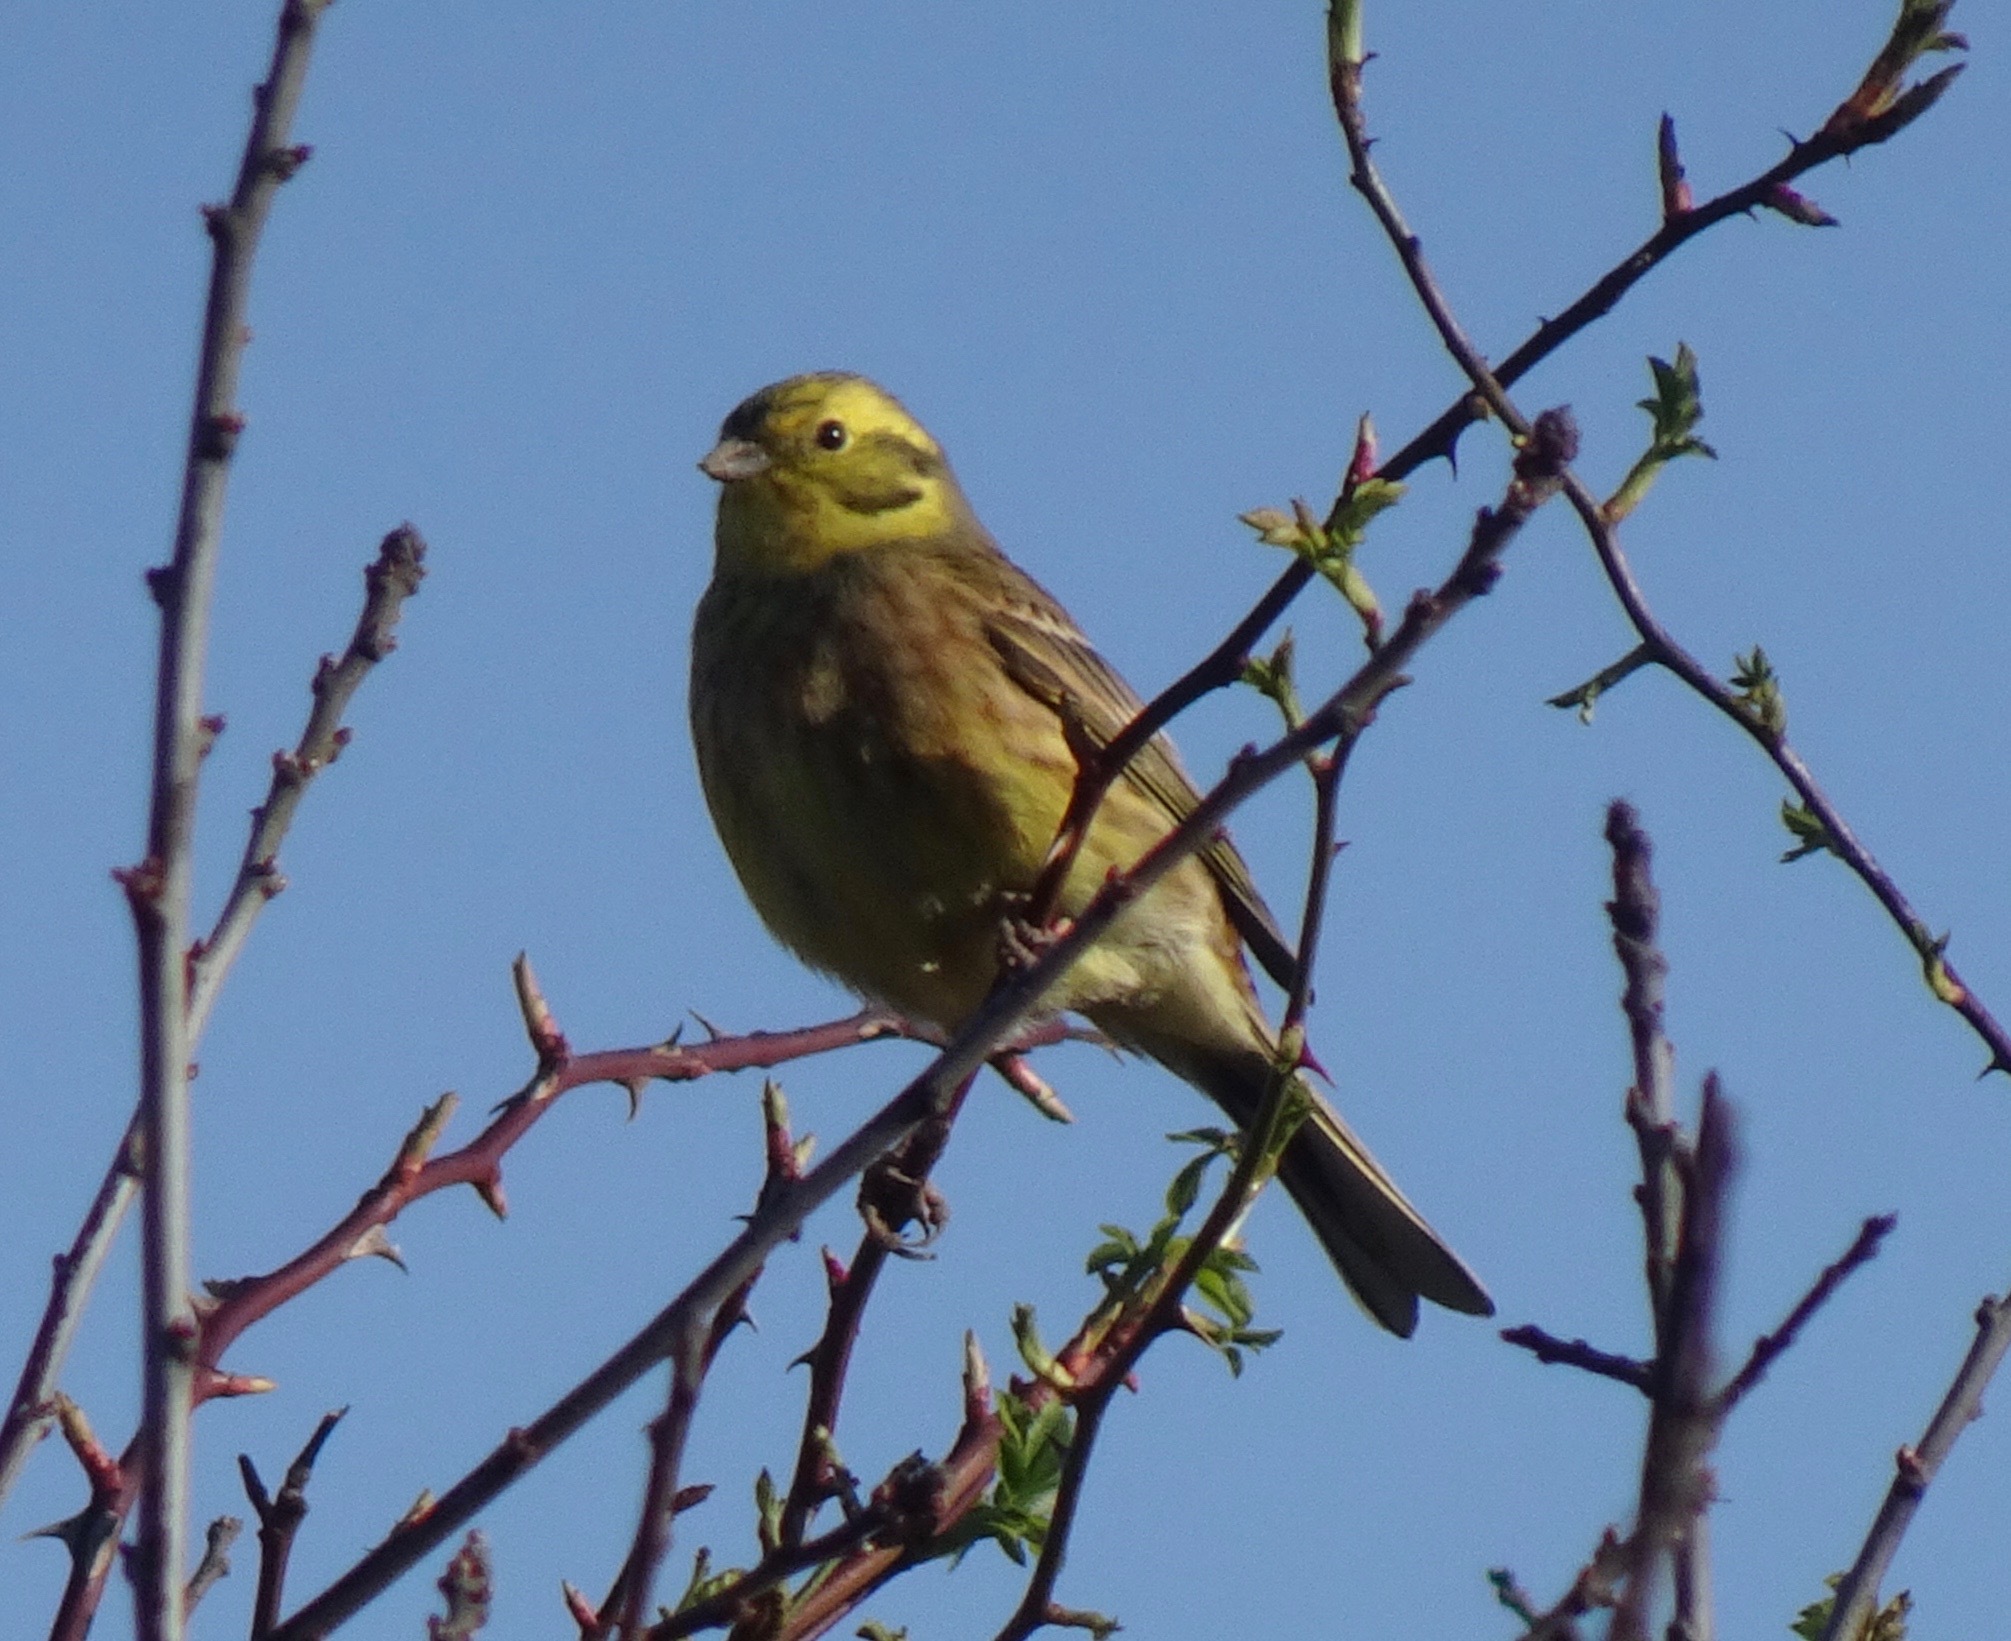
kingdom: Animalia
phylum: Chordata
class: Aves
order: Passeriformes
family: Emberizidae
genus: Emberiza
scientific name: Emberiza citrinella
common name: Yellowhammer
